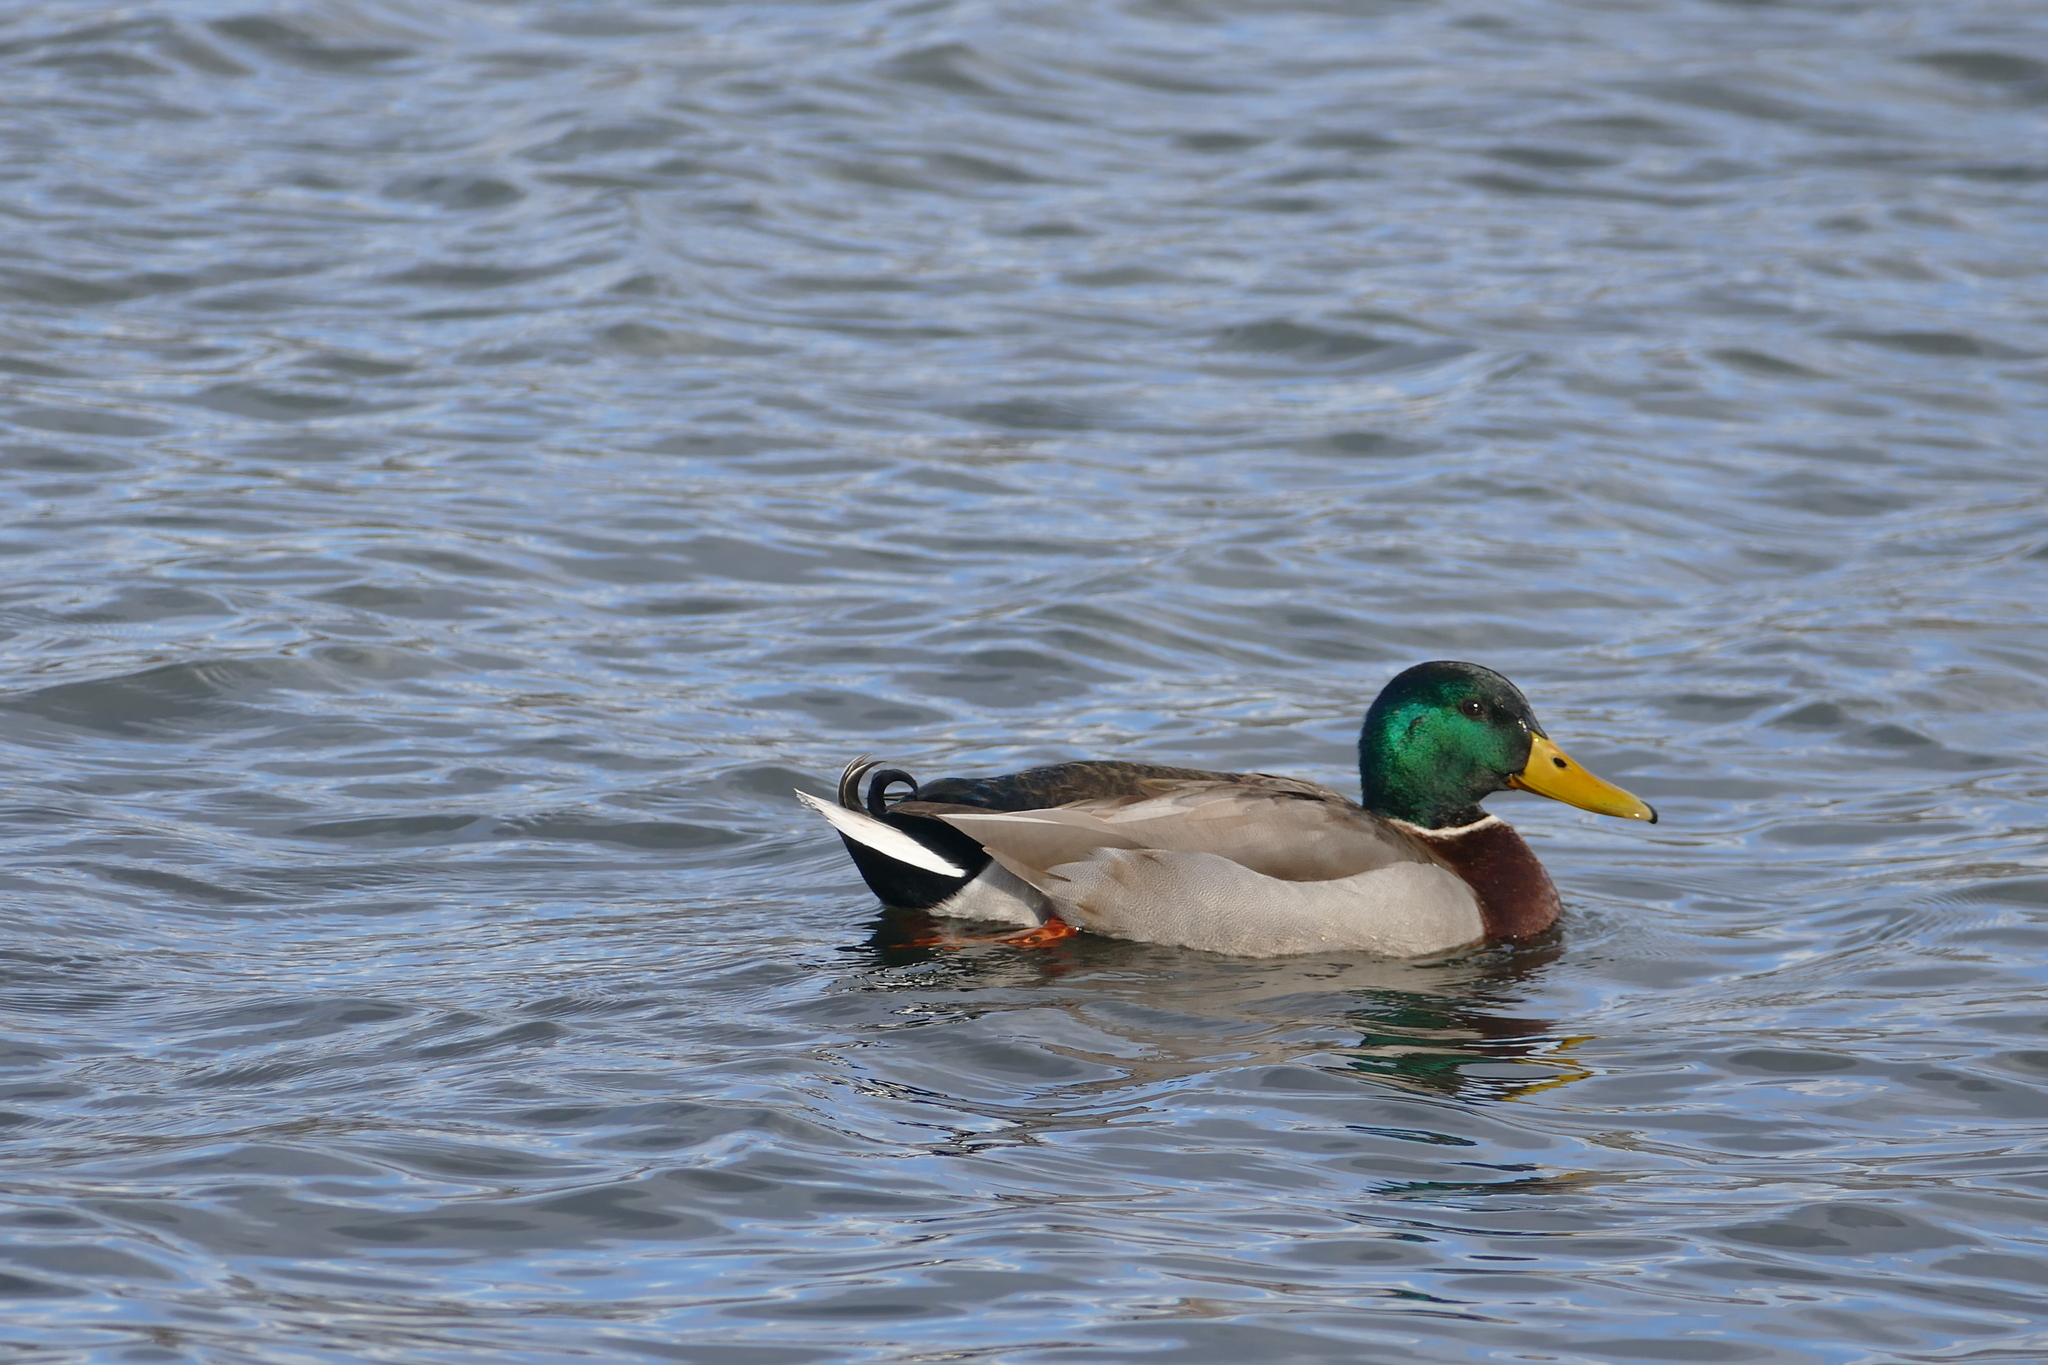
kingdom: Animalia
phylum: Chordata
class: Aves
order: Anseriformes
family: Anatidae
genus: Anas
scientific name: Anas platyrhynchos
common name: Mallard
